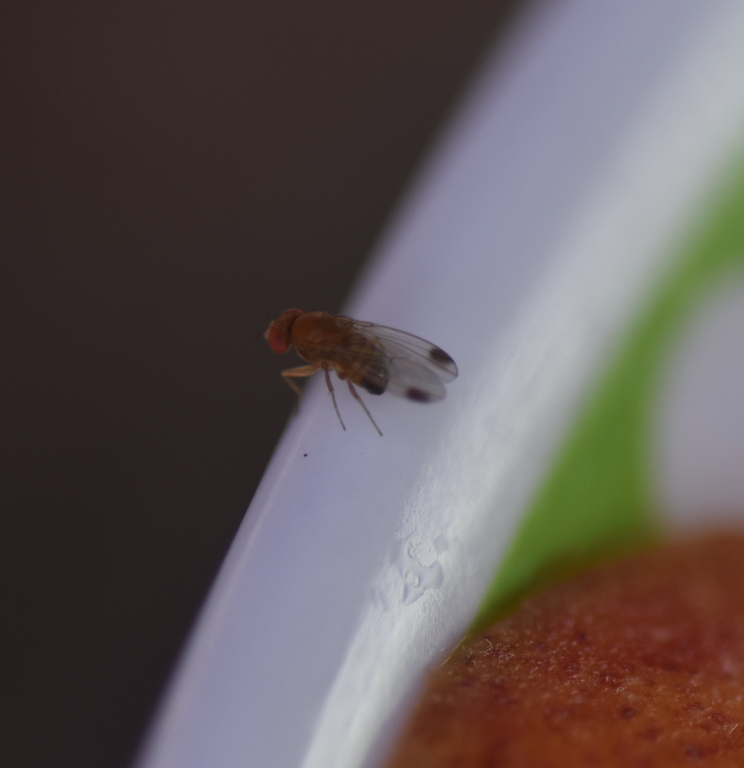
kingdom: Animalia
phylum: Arthropoda
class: Insecta
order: Diptera
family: Drosophilidae
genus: Drosophila
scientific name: Drosophila suzukii
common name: Spotted-wing drosophila
